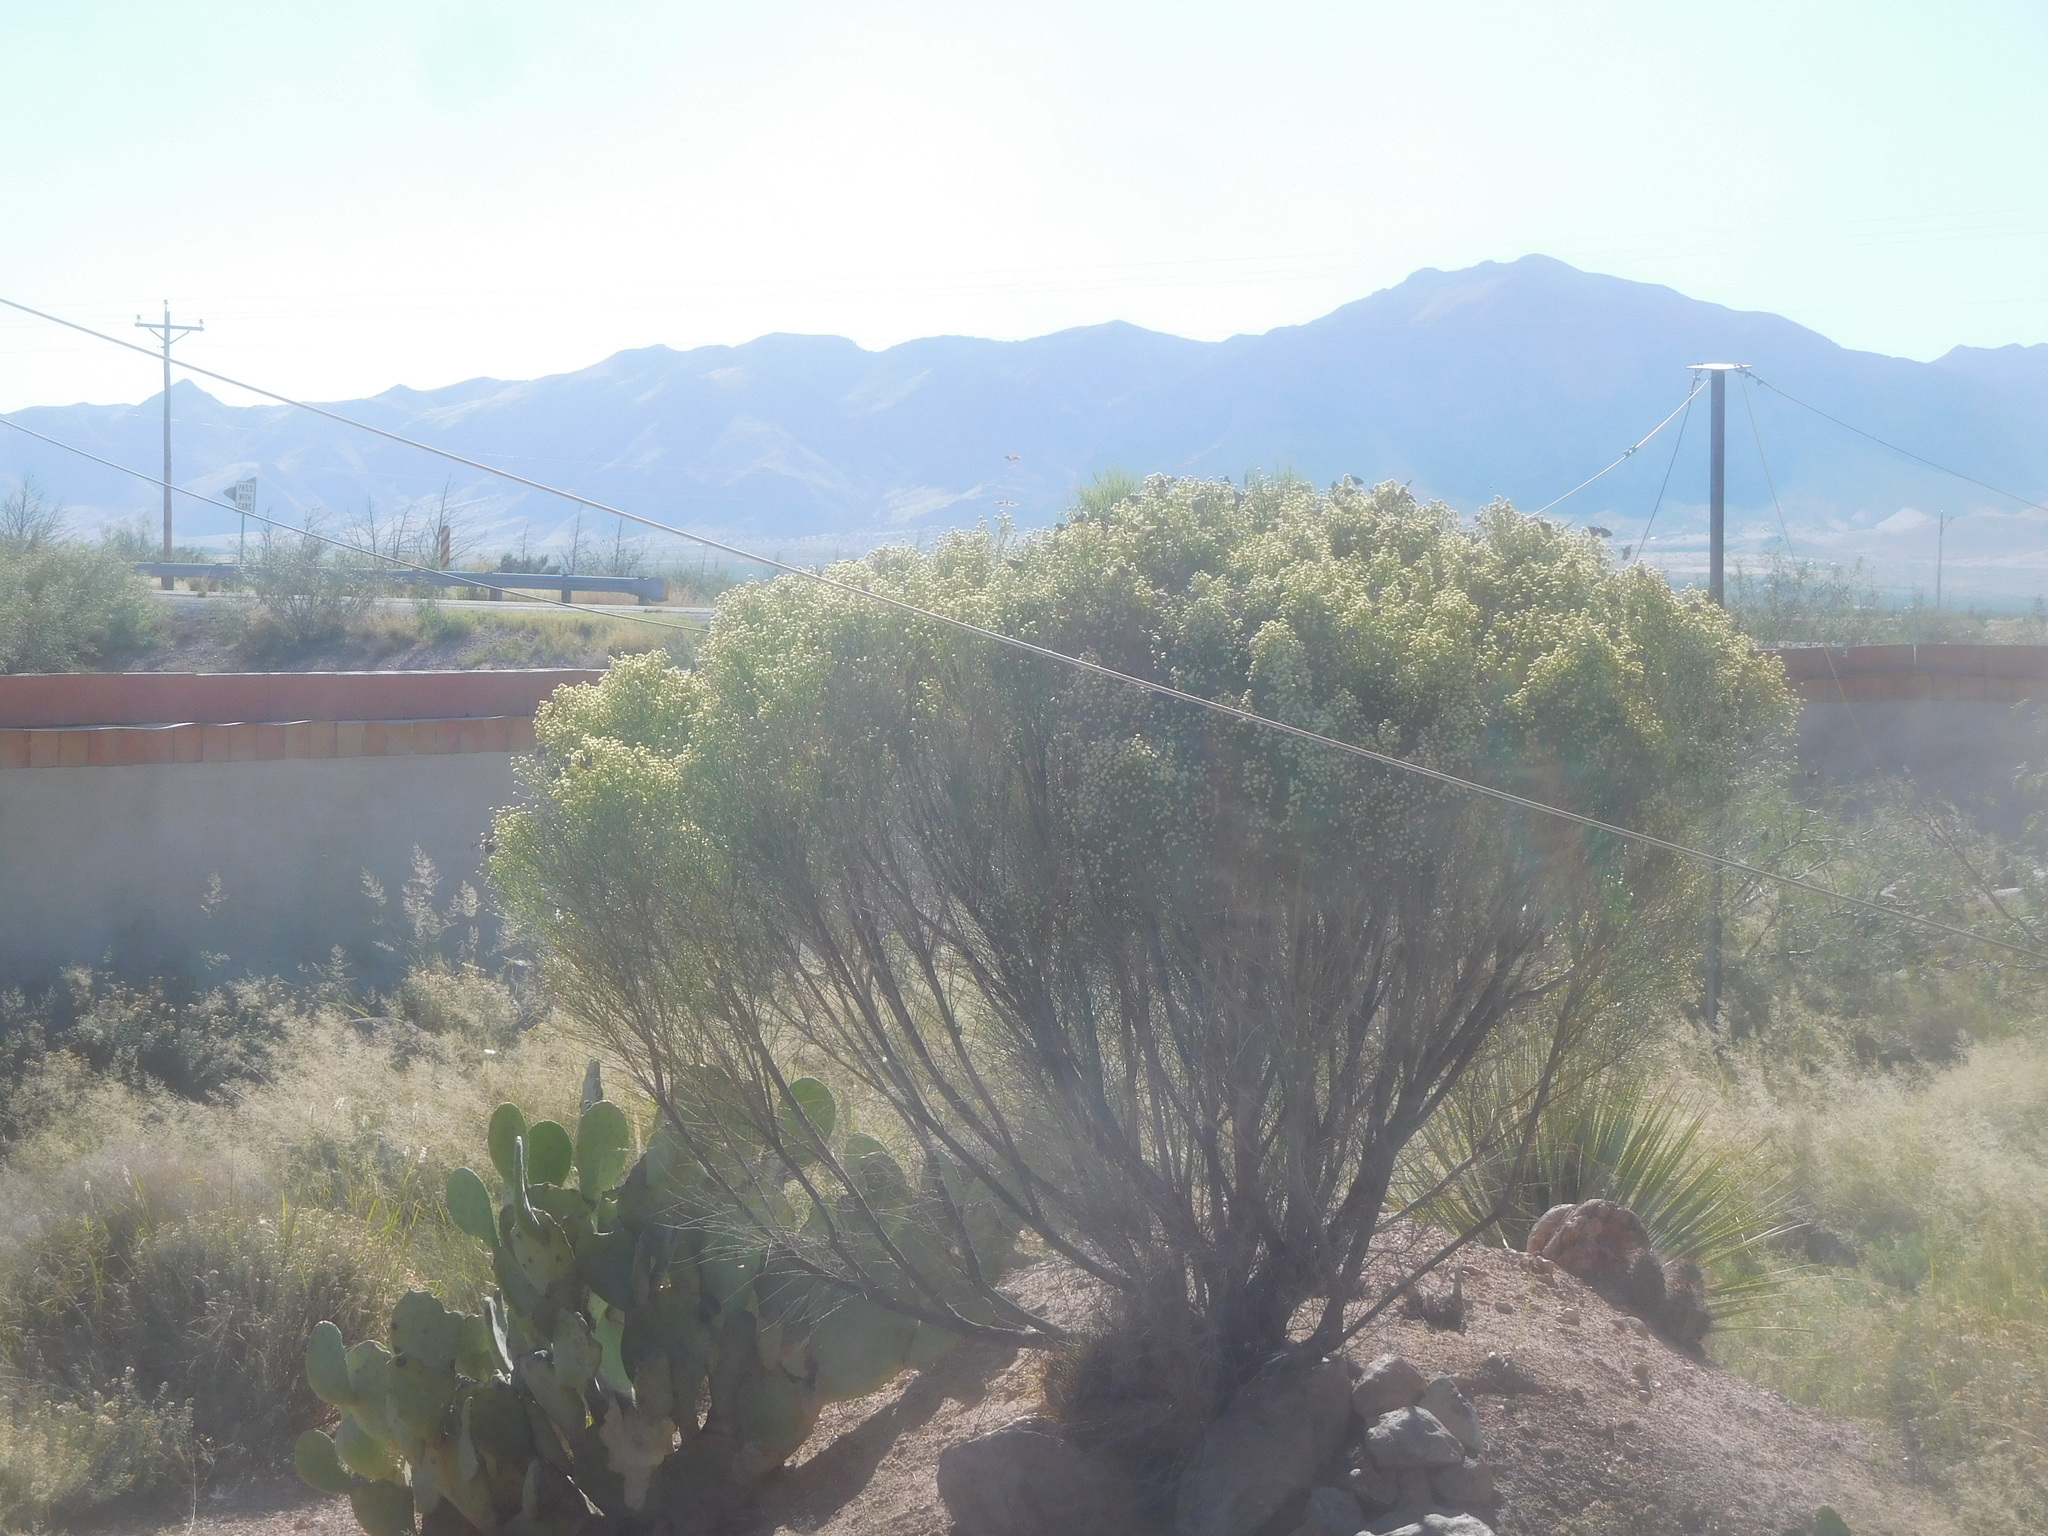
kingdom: Plantae
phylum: Tracheophyta
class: Magnoliopsida
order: Asterales
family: Asteraceae
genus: Baccharis
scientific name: Baccharis sarothroides
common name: Desert-broom
